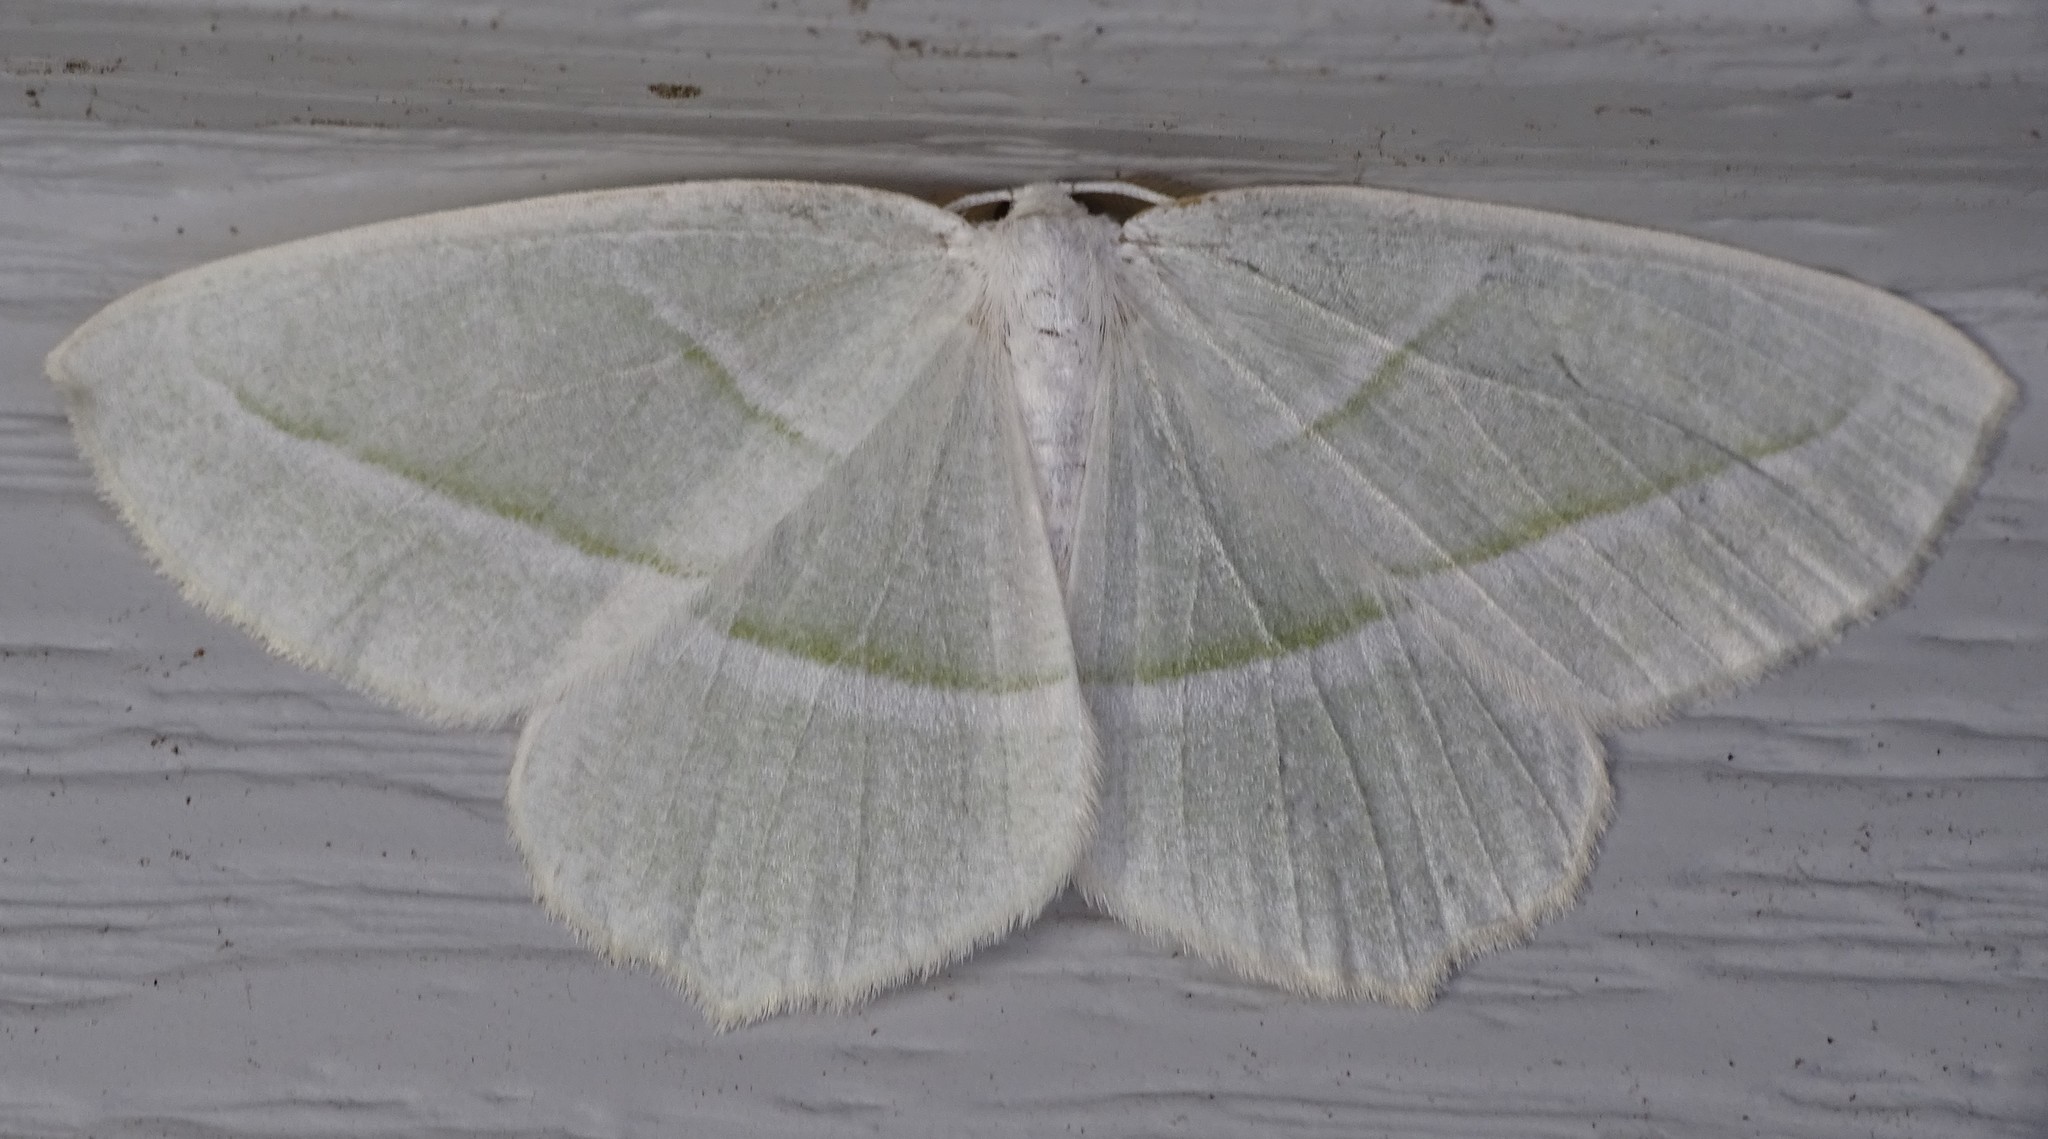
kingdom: Animalia
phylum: Arthropoda
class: Insecta
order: Lepidoptera
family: Geometridae
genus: Campaea
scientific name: Campaea perlata
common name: Fringed looper
